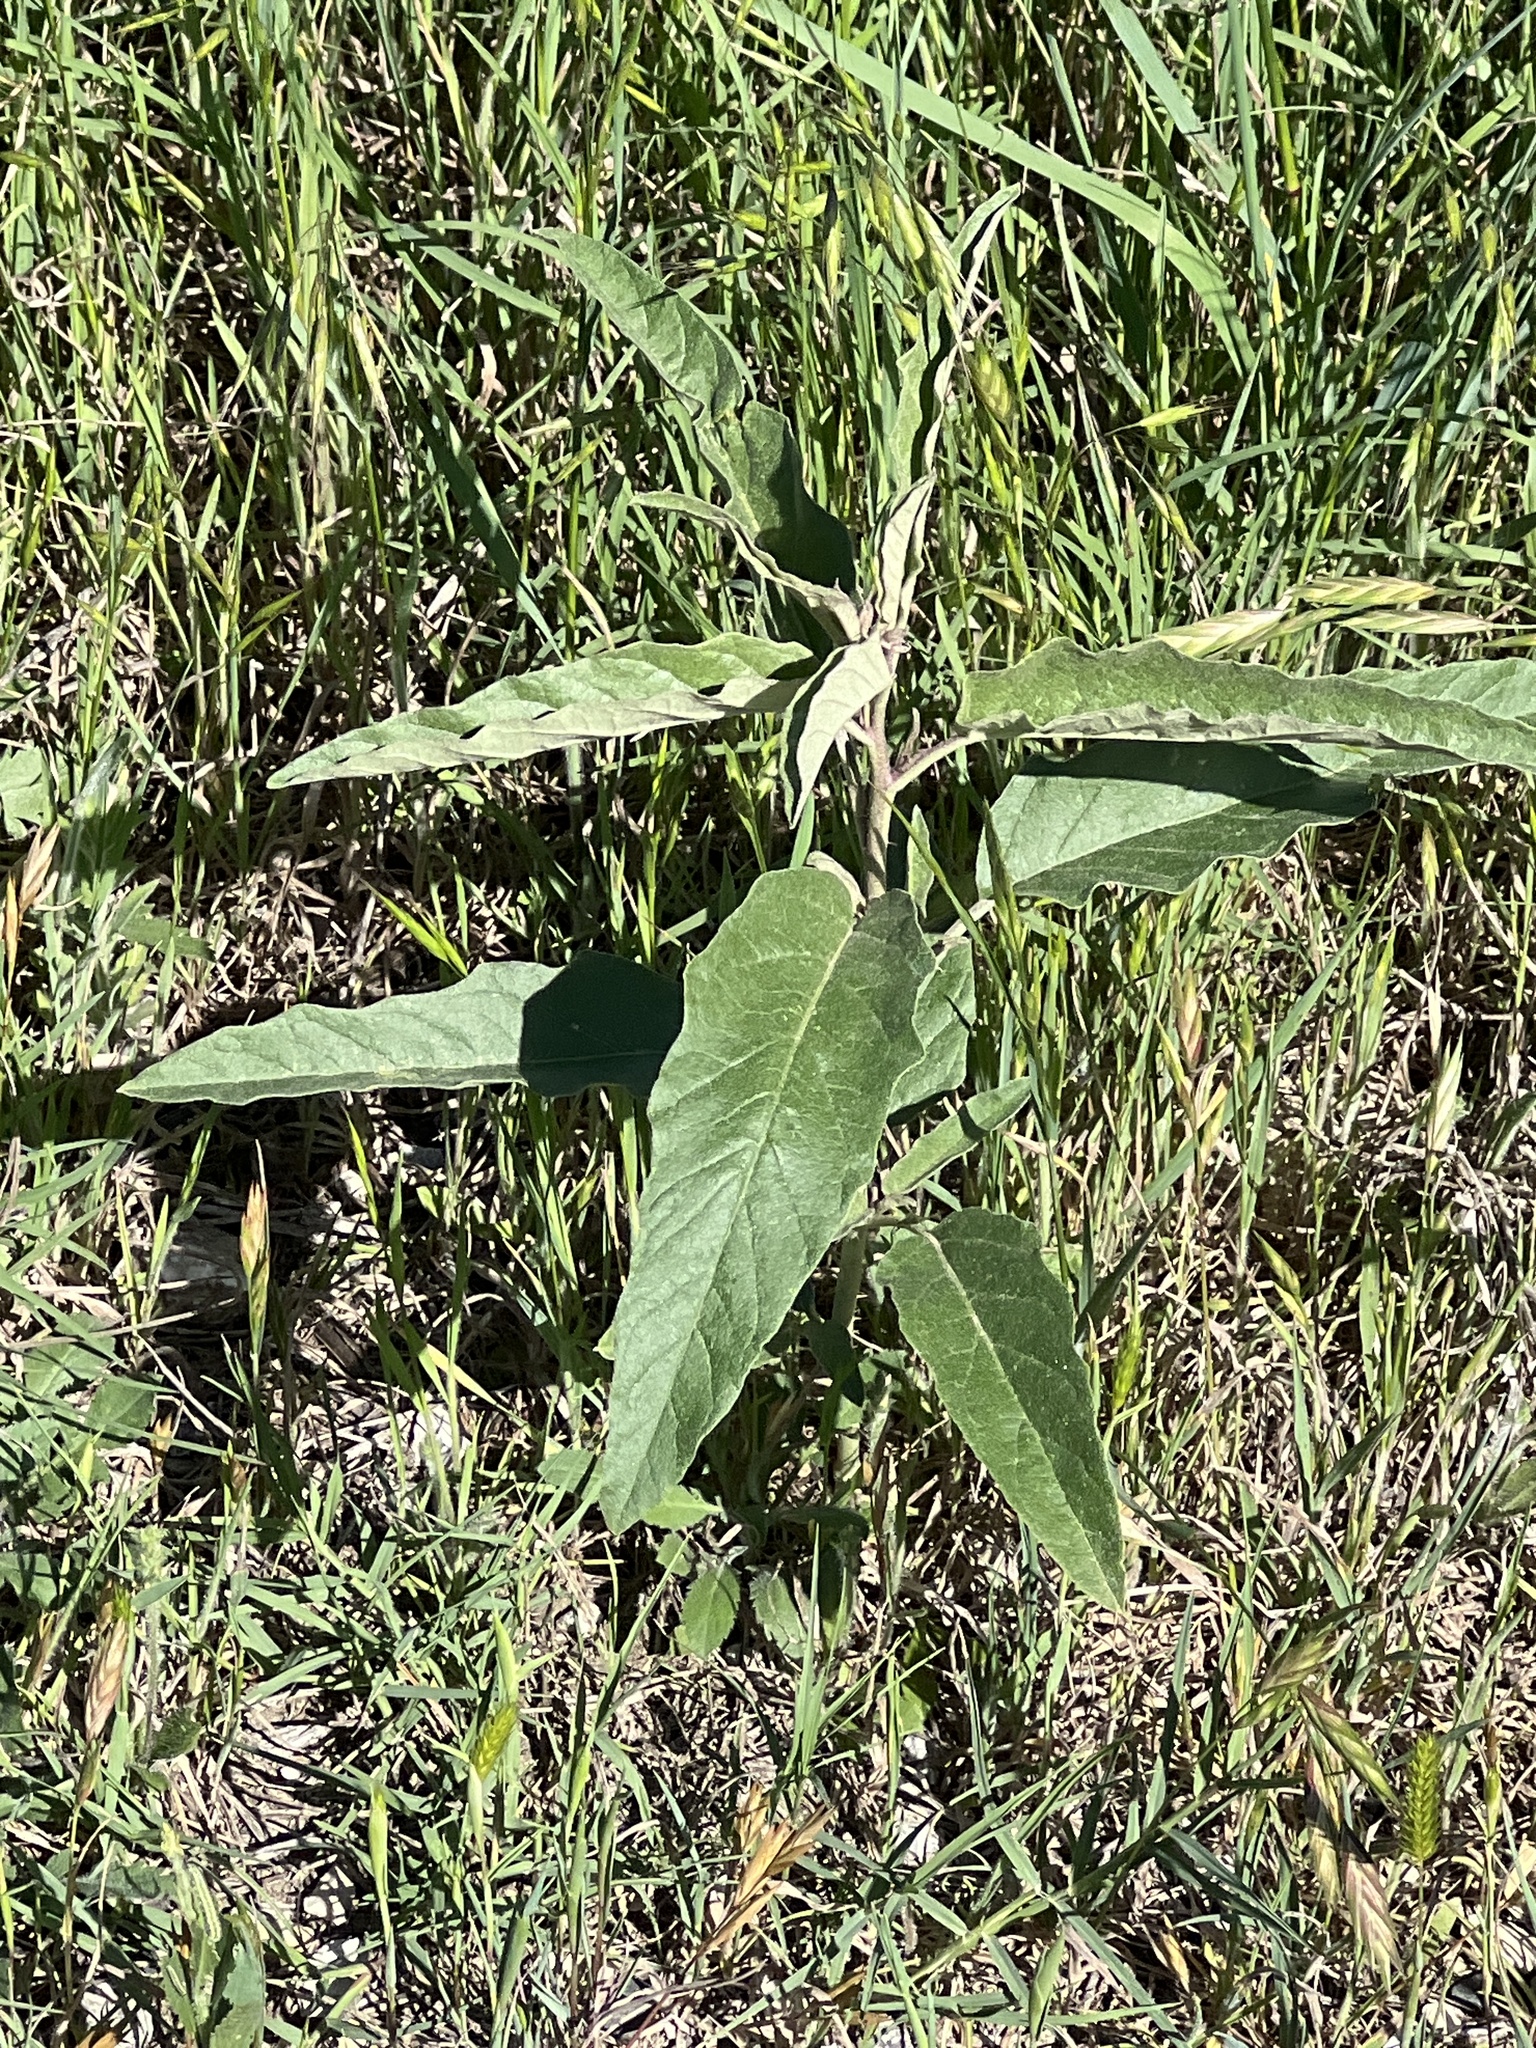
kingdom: Plantae
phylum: Tracheophyta
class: Magnoliopsida
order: Solanales
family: Solanaceae
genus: Solanum
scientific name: Solanum elaeagnifolium
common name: Silverleaf nightshade
